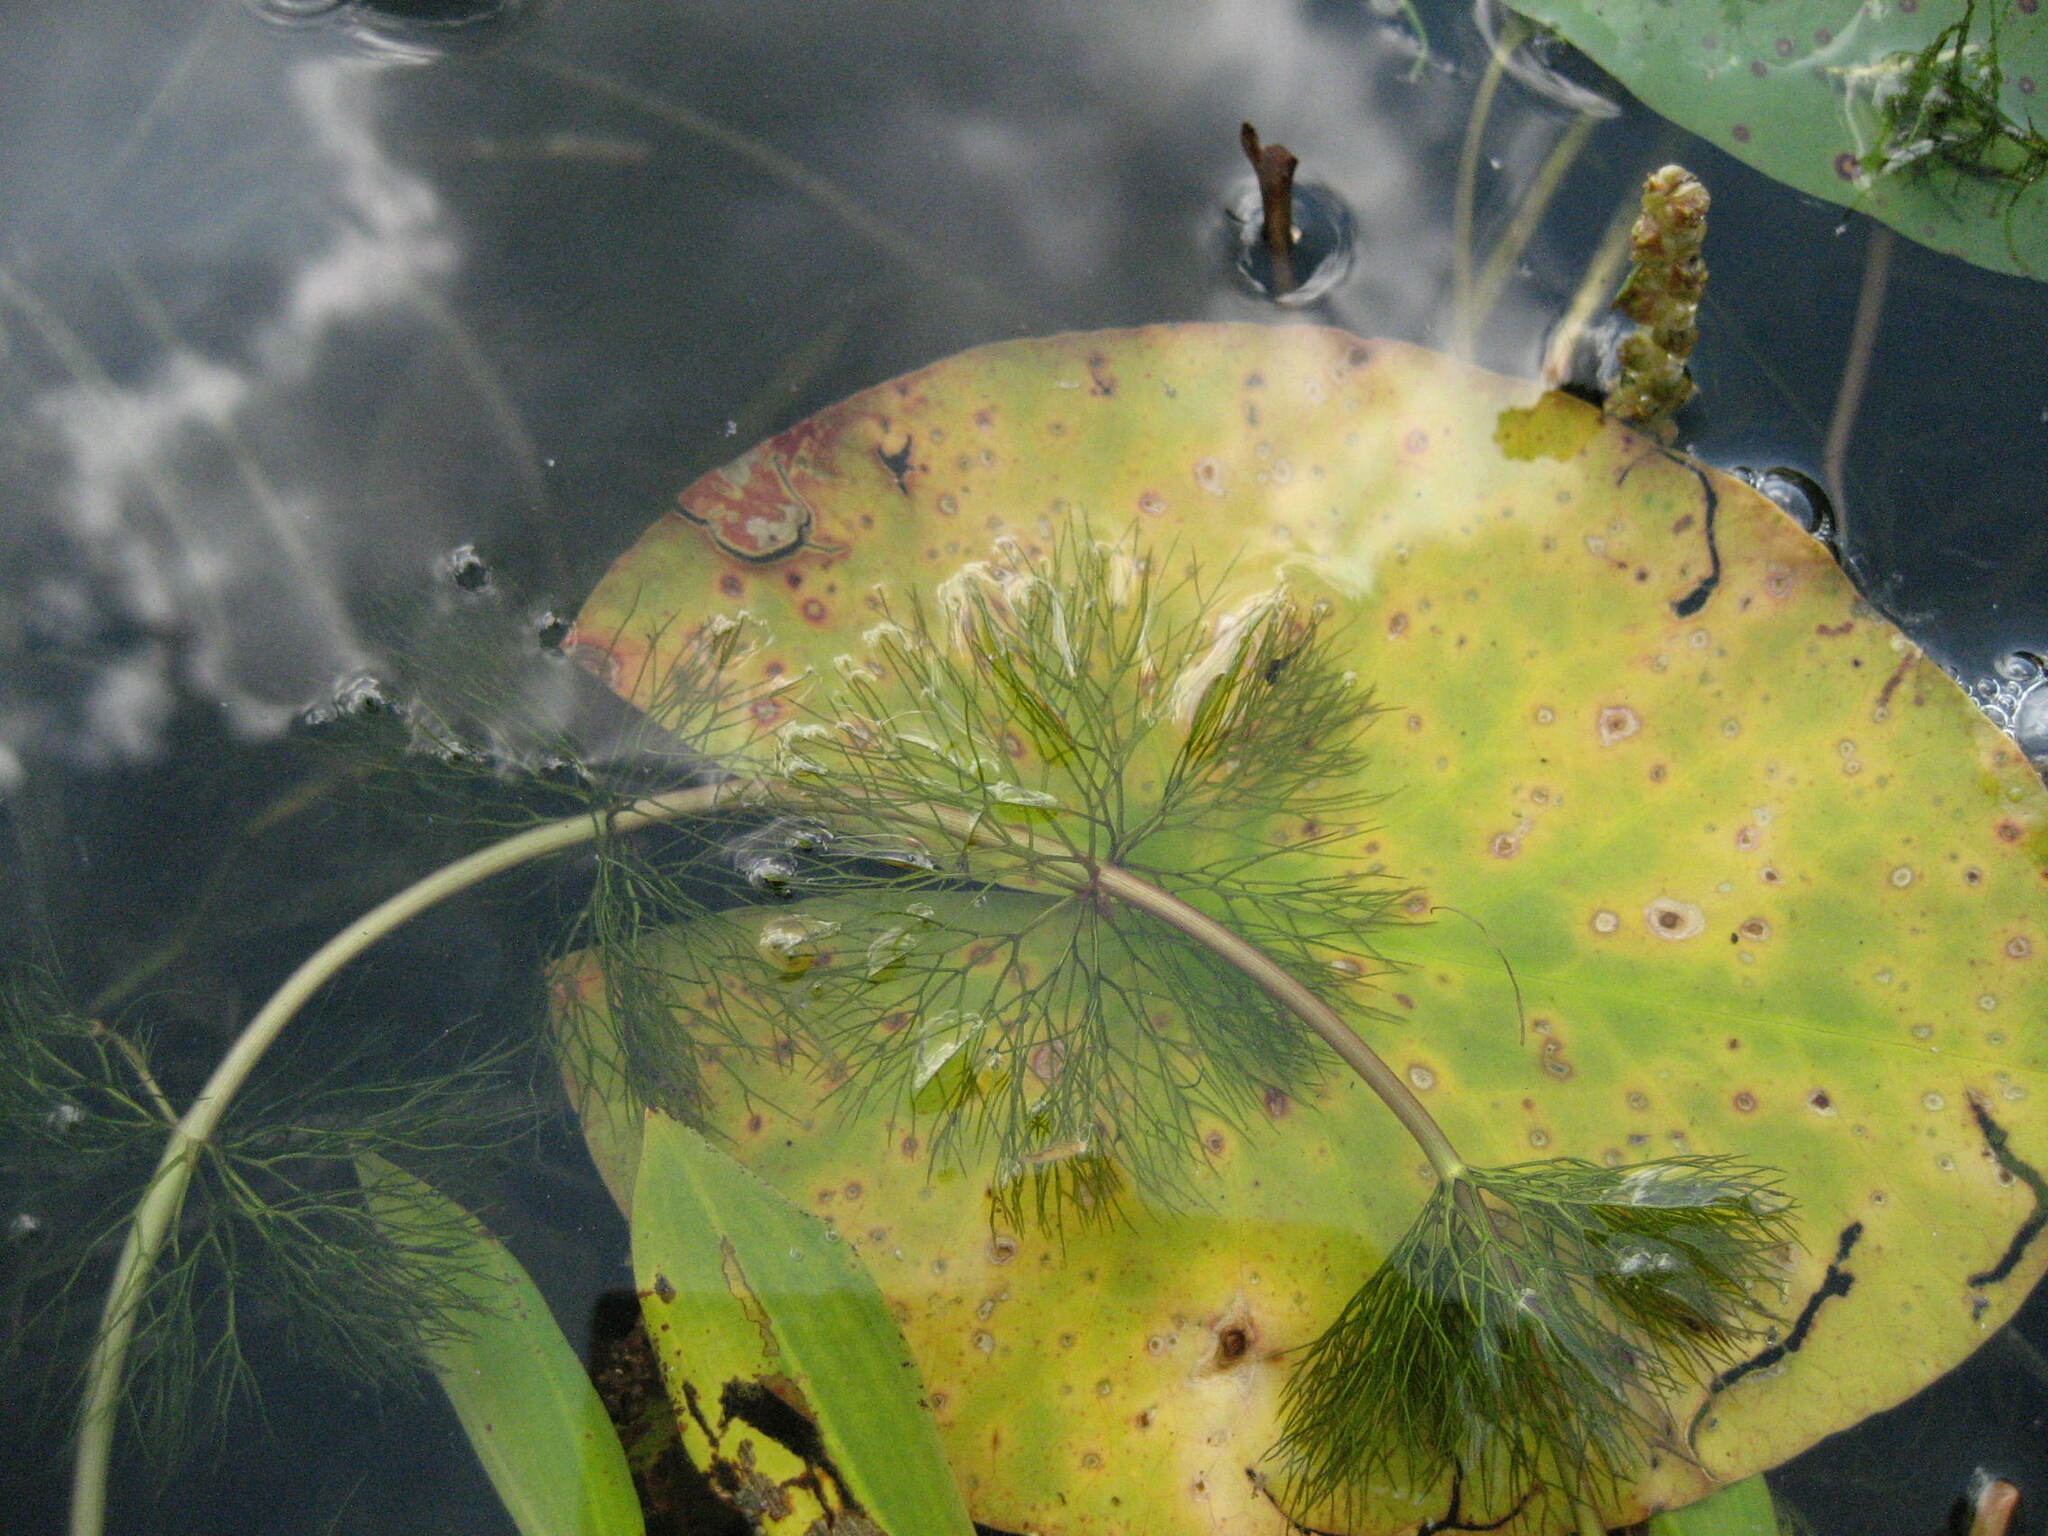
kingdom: Plantae
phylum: Tracheophyta
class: Magnoliopsida
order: Asterales
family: Asteraceae
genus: Bidens
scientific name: Bidens beckii
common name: Beck's beggarticks
